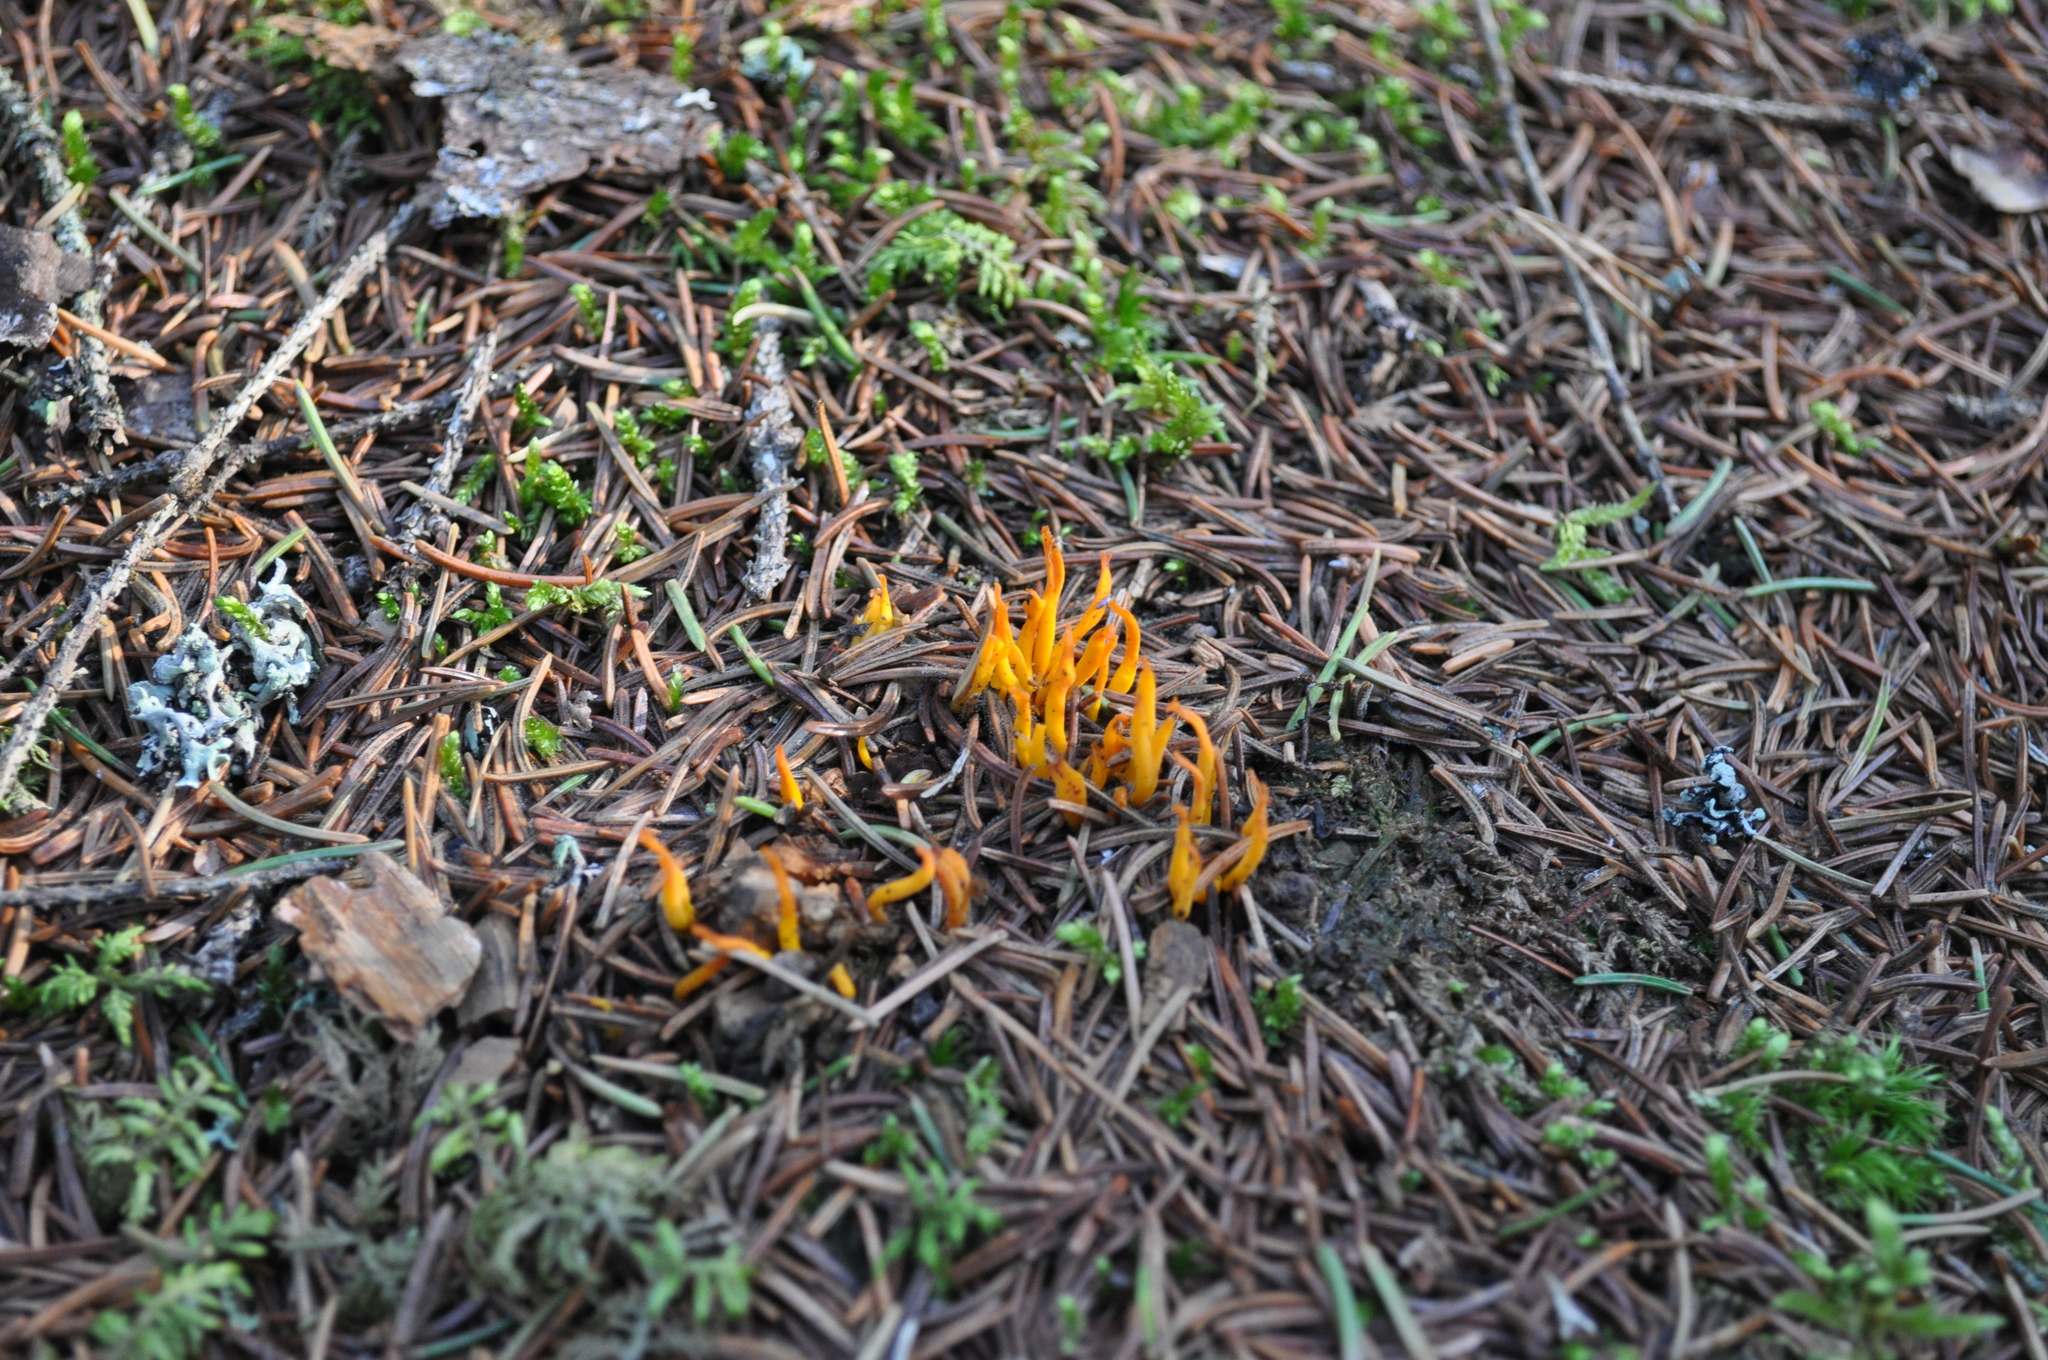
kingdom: Fungi
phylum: Basidiomycota
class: Dacrymycetes
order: Dacrymycetales
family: Dacrymycetaceae
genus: Calocera
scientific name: Calocera viscosa
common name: Yellow stagshorn
